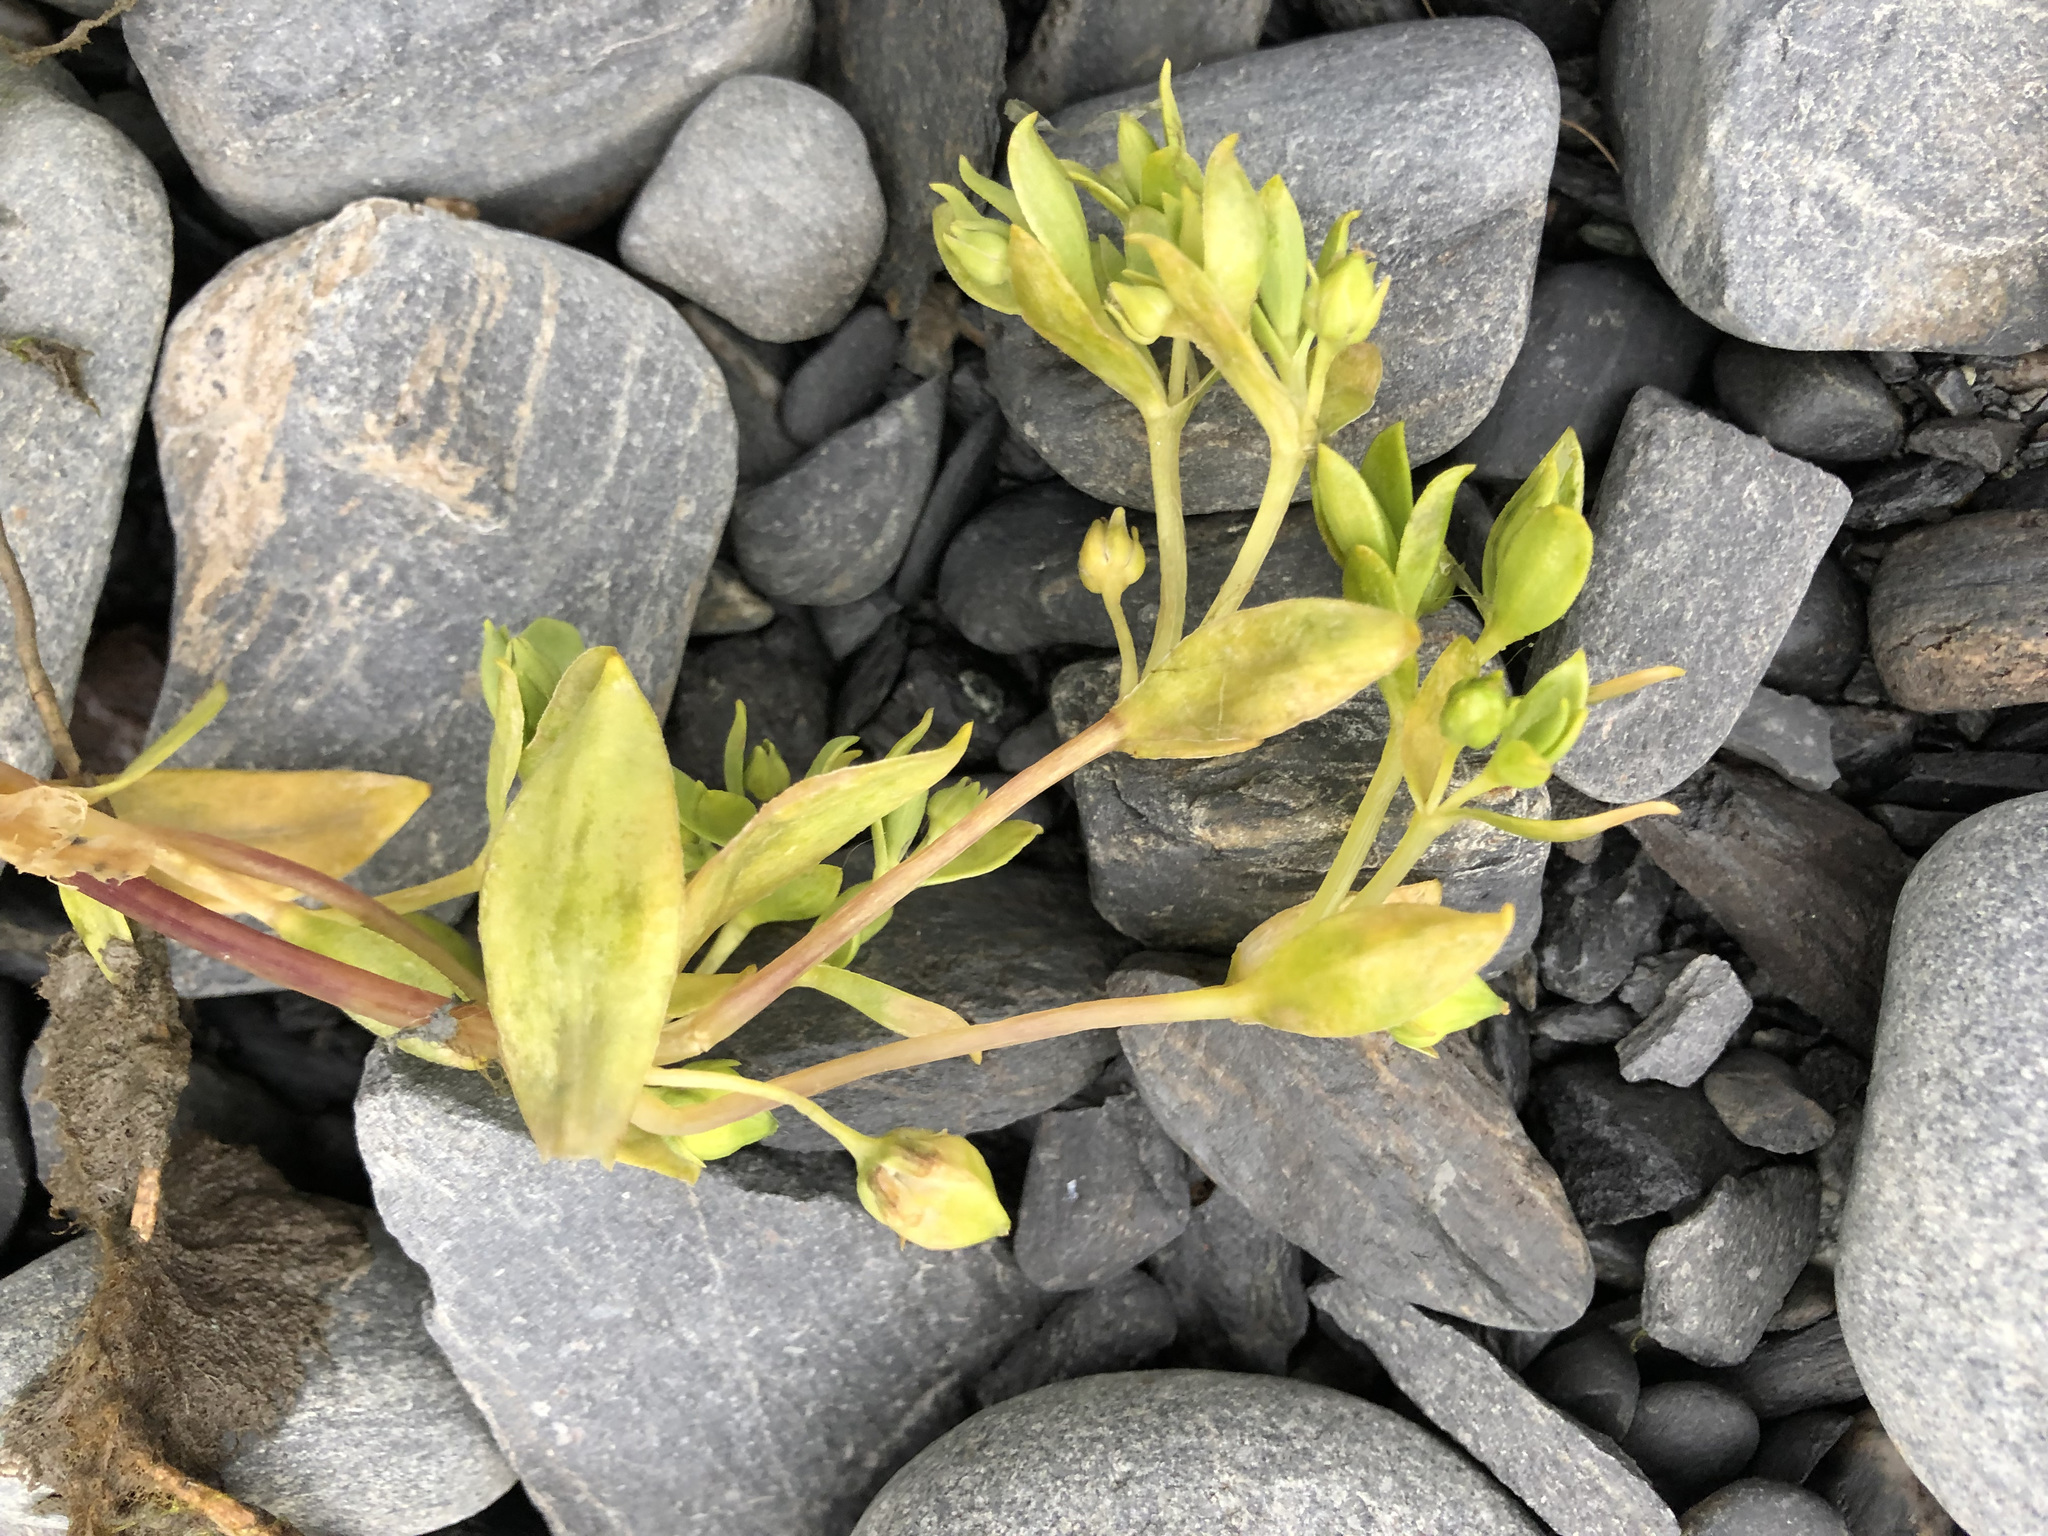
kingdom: Plantae
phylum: Tracheophyta
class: Magnoliopsida
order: Caryophyllales
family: Caryophyllaceae
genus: Honckenya
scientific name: Honckenya peploides
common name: Sea sandwort
